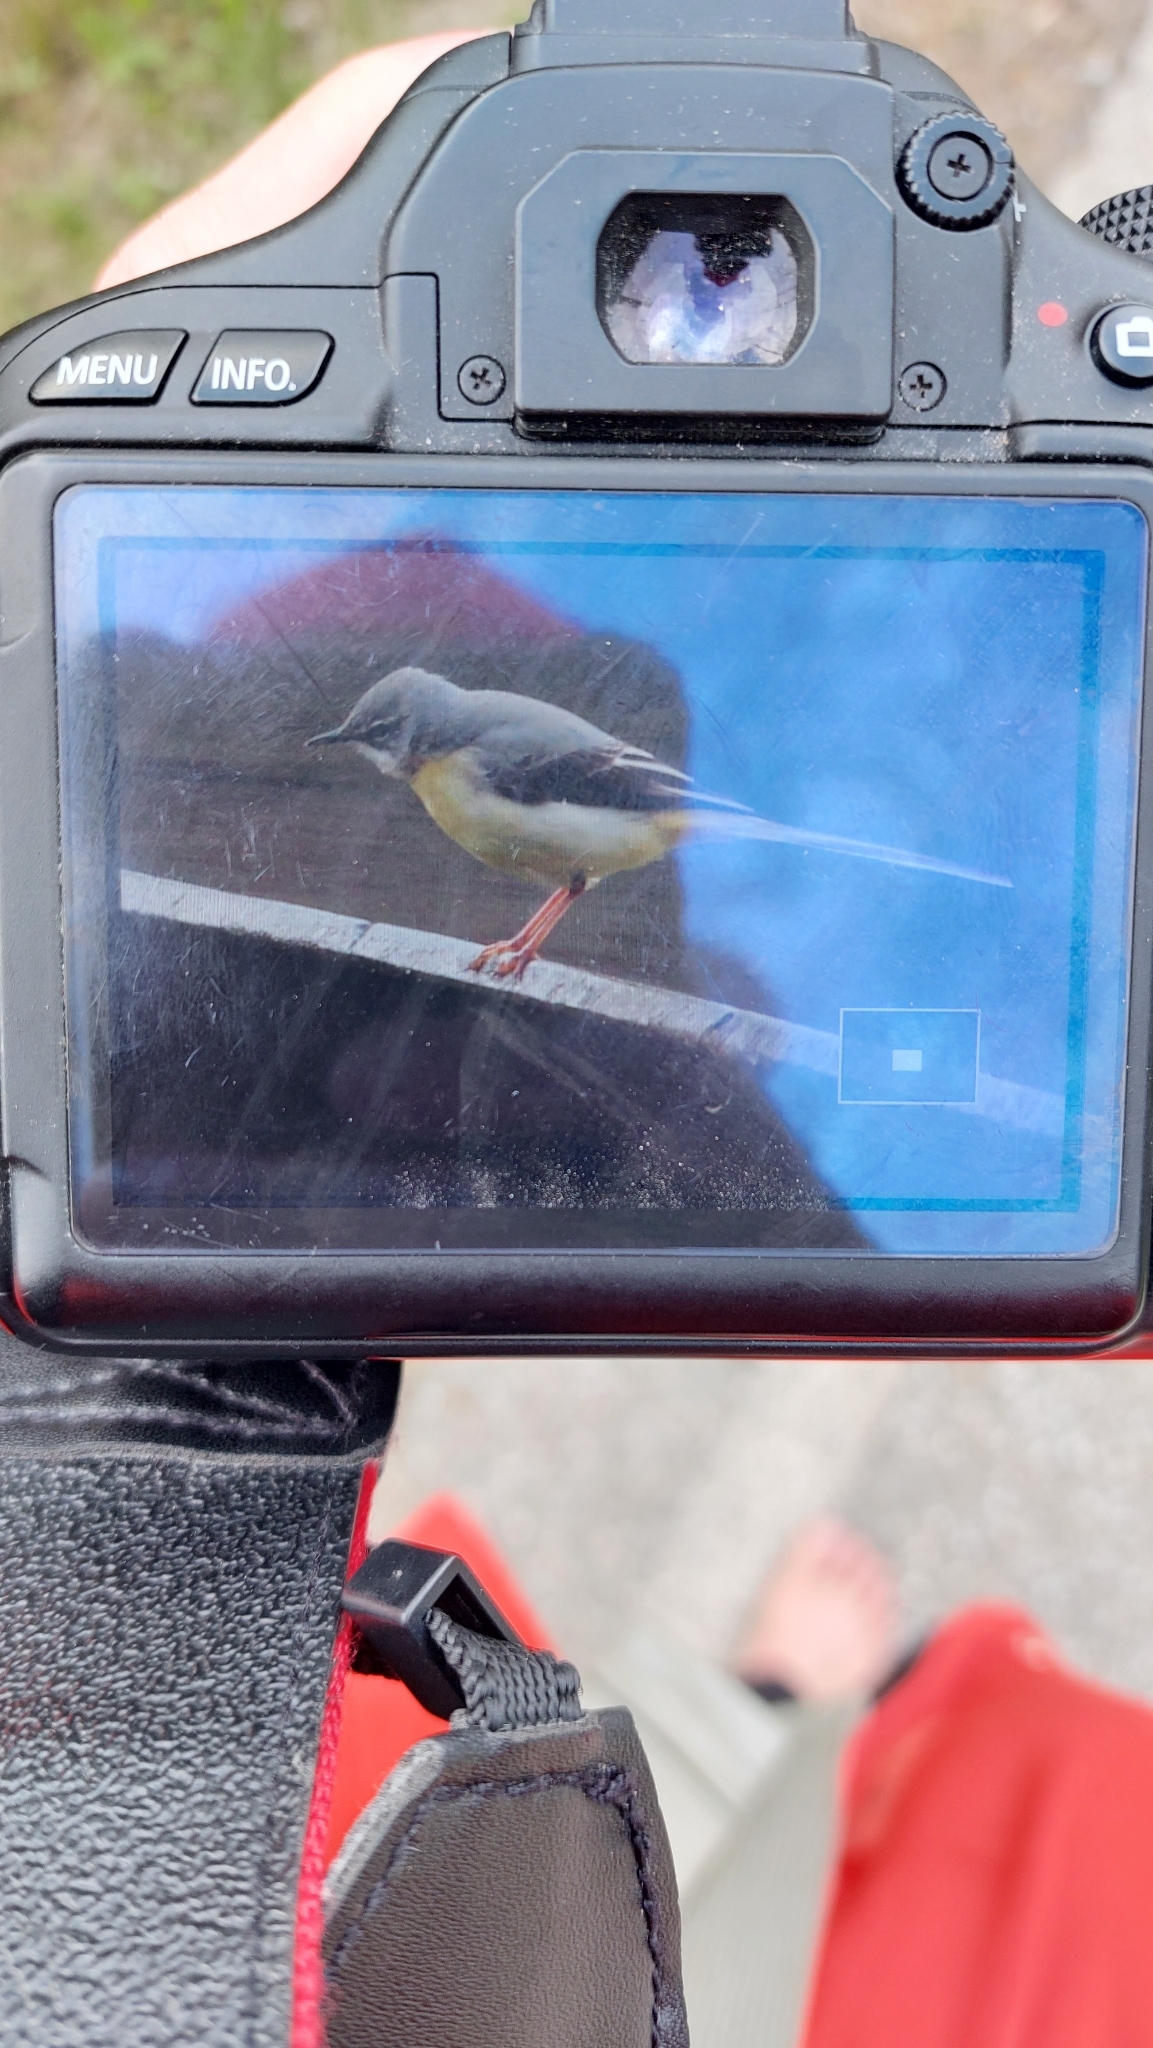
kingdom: Animalia
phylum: Chordata
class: Aves
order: Passeriformes
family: Motacillidae
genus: Motacilla
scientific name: Motacilla cinerea
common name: Grey wagtail
